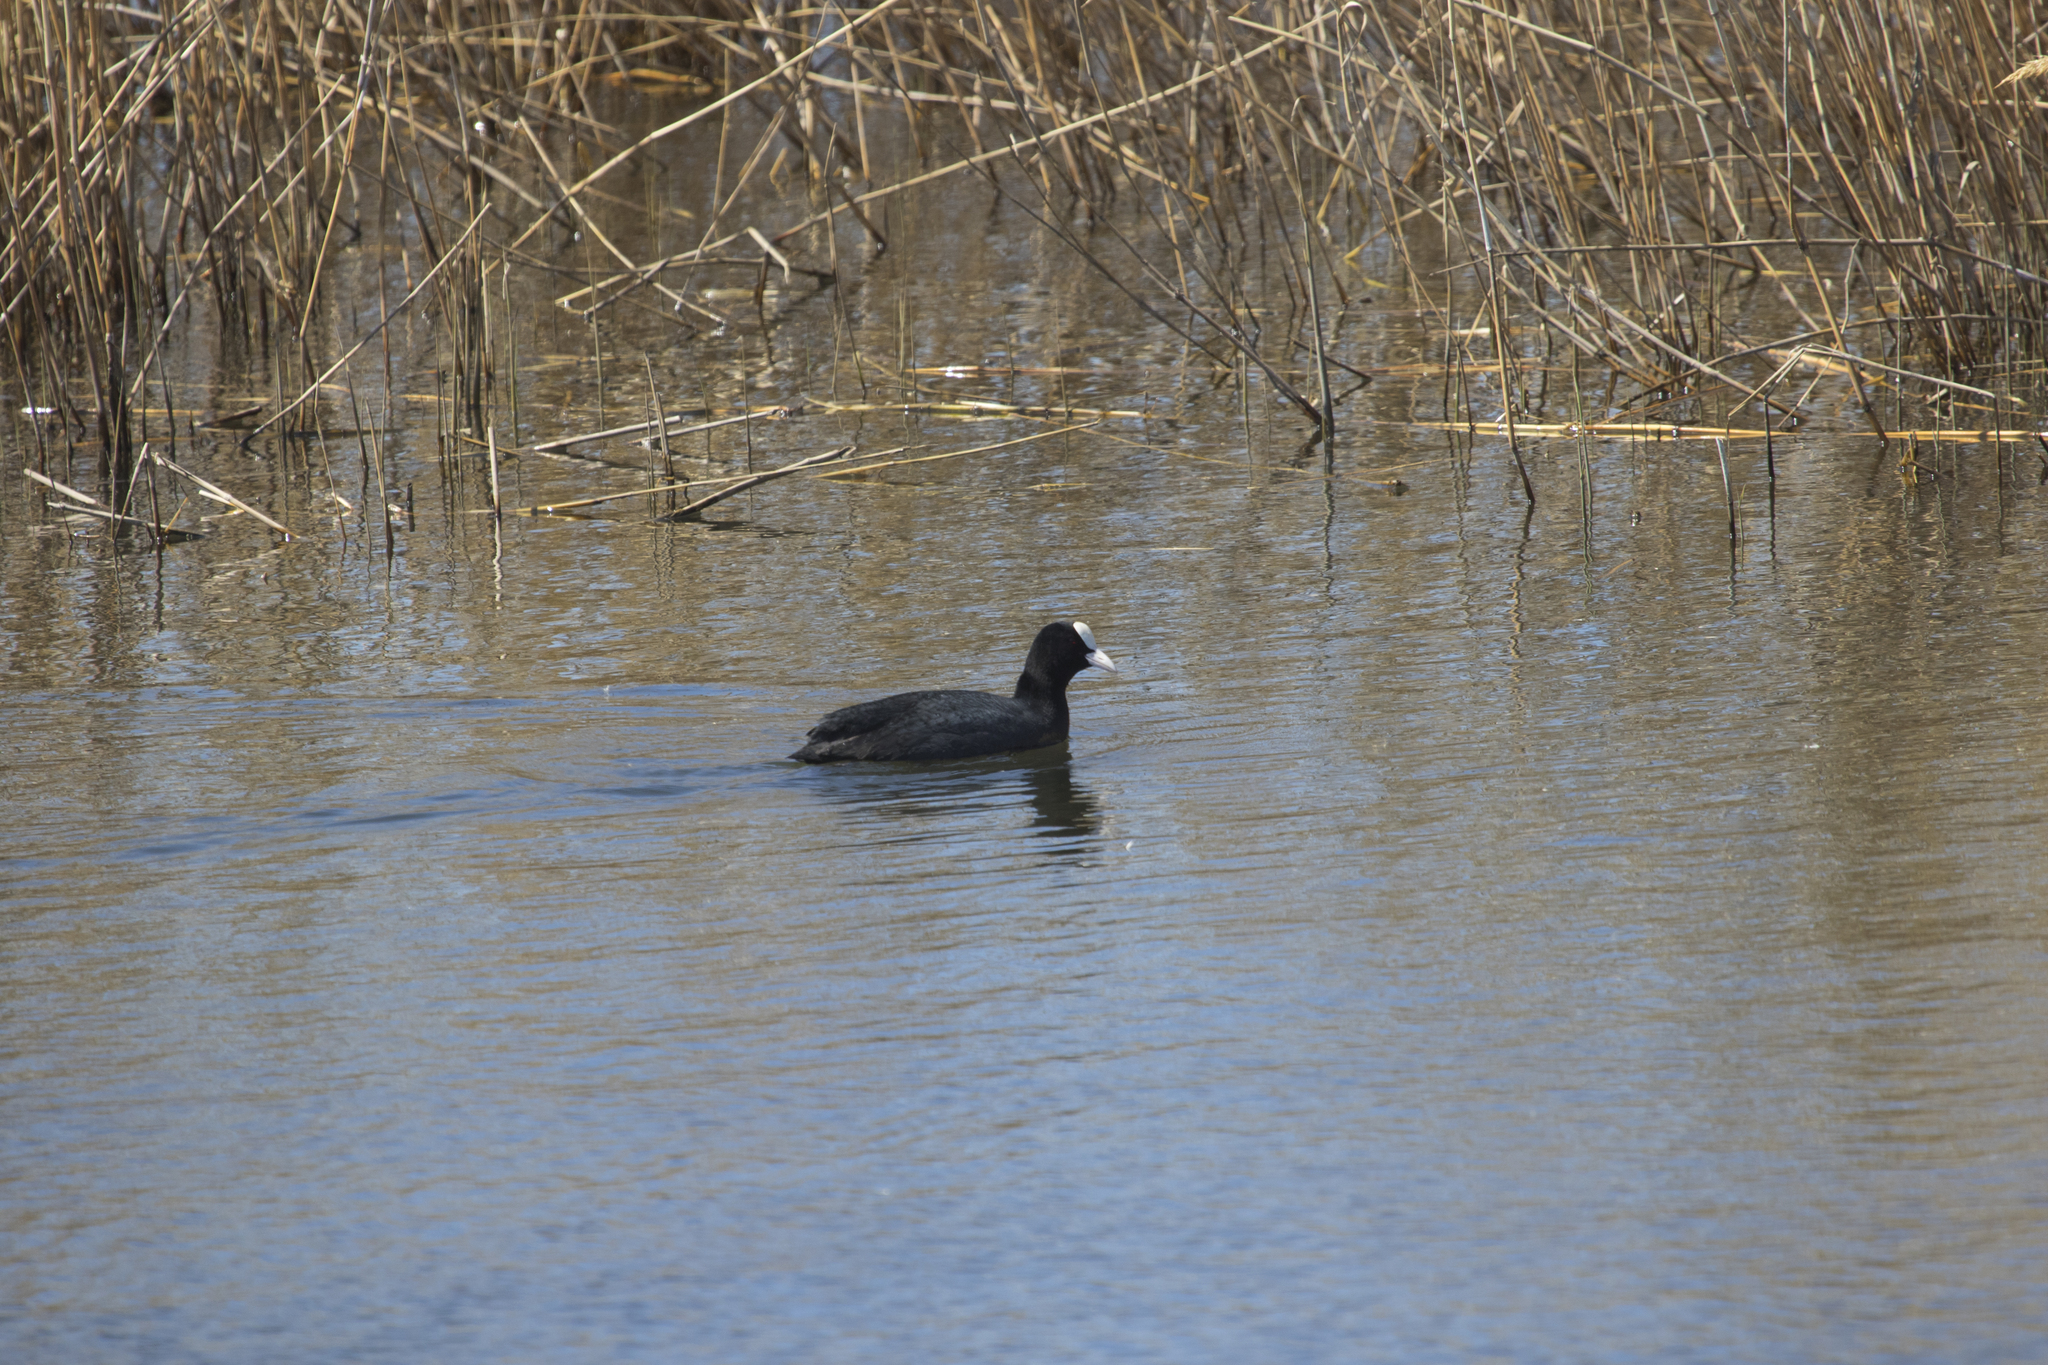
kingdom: Animalia
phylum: Chordata
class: Aves
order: Gruiformes
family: Rallidae
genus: Fulica
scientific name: Fulica atra
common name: Eurasian coot
